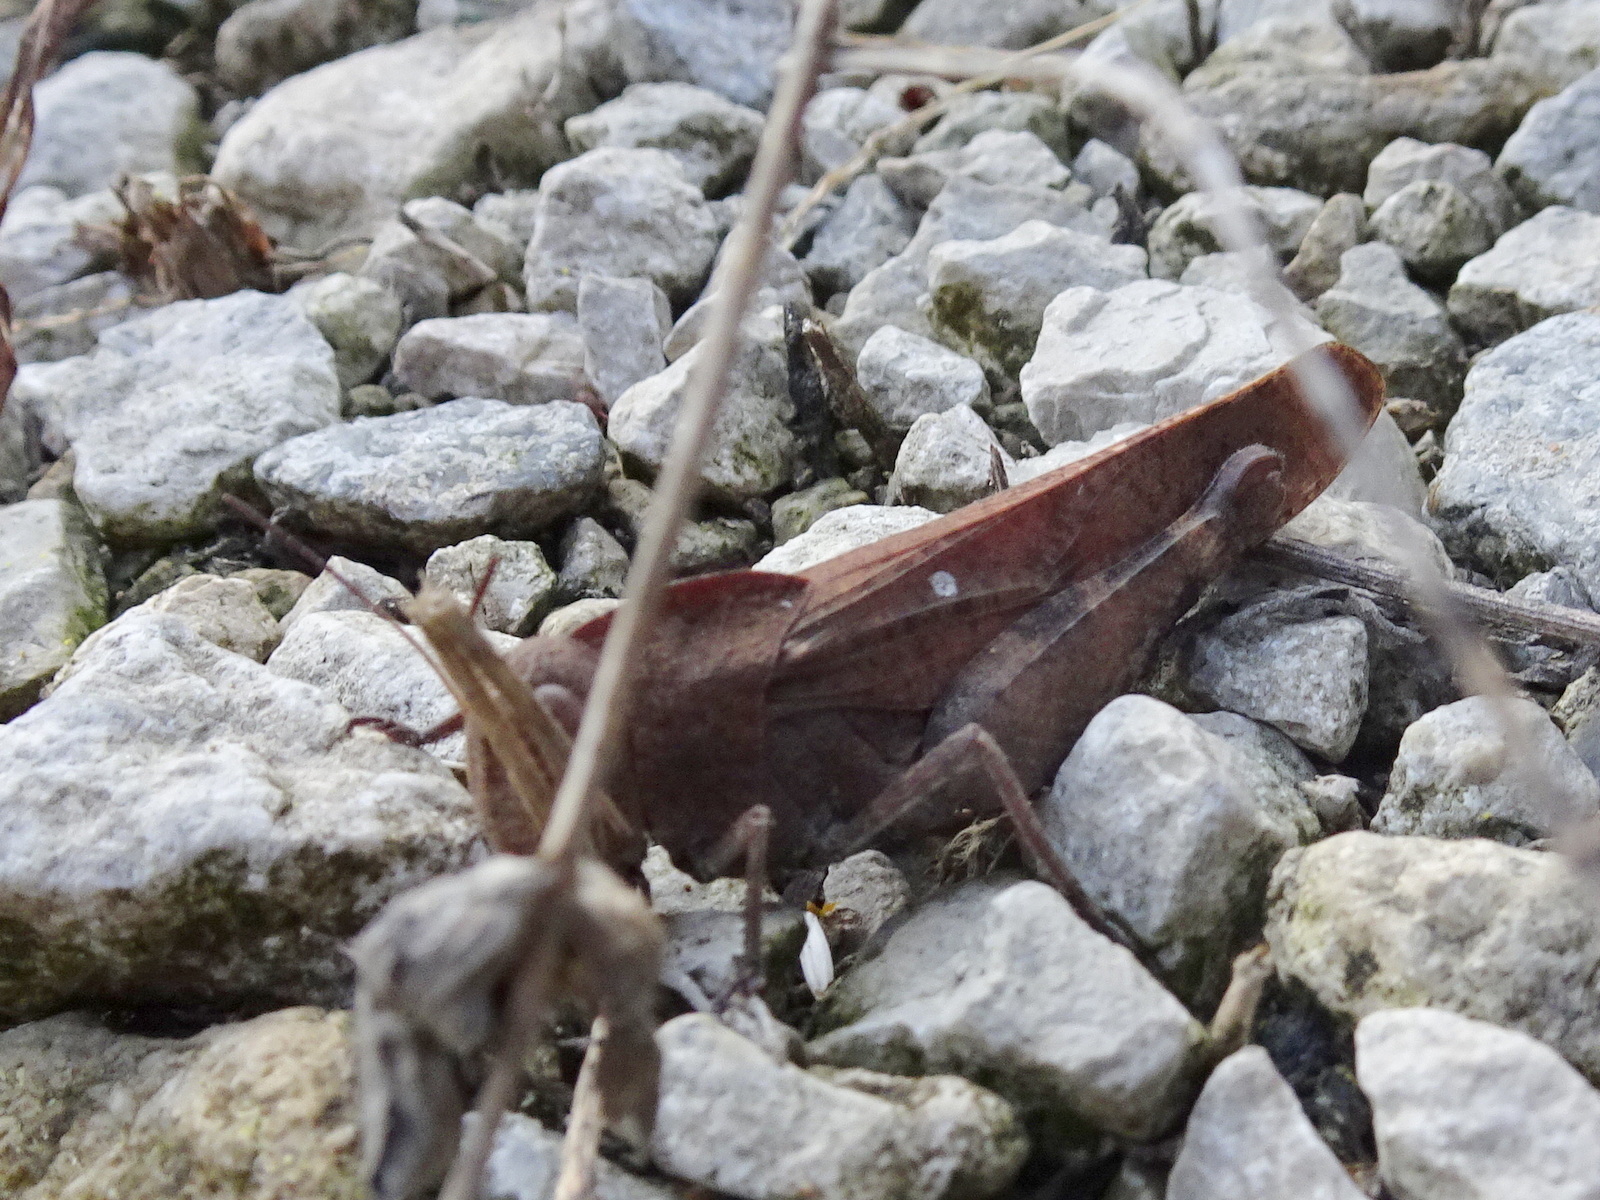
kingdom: Animalia
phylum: Arthropoda
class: Insecta
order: Orthoptera
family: Acrididae
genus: Arphia
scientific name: Arphia xanthoptera
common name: Autumn yellow-winged grasshopper
